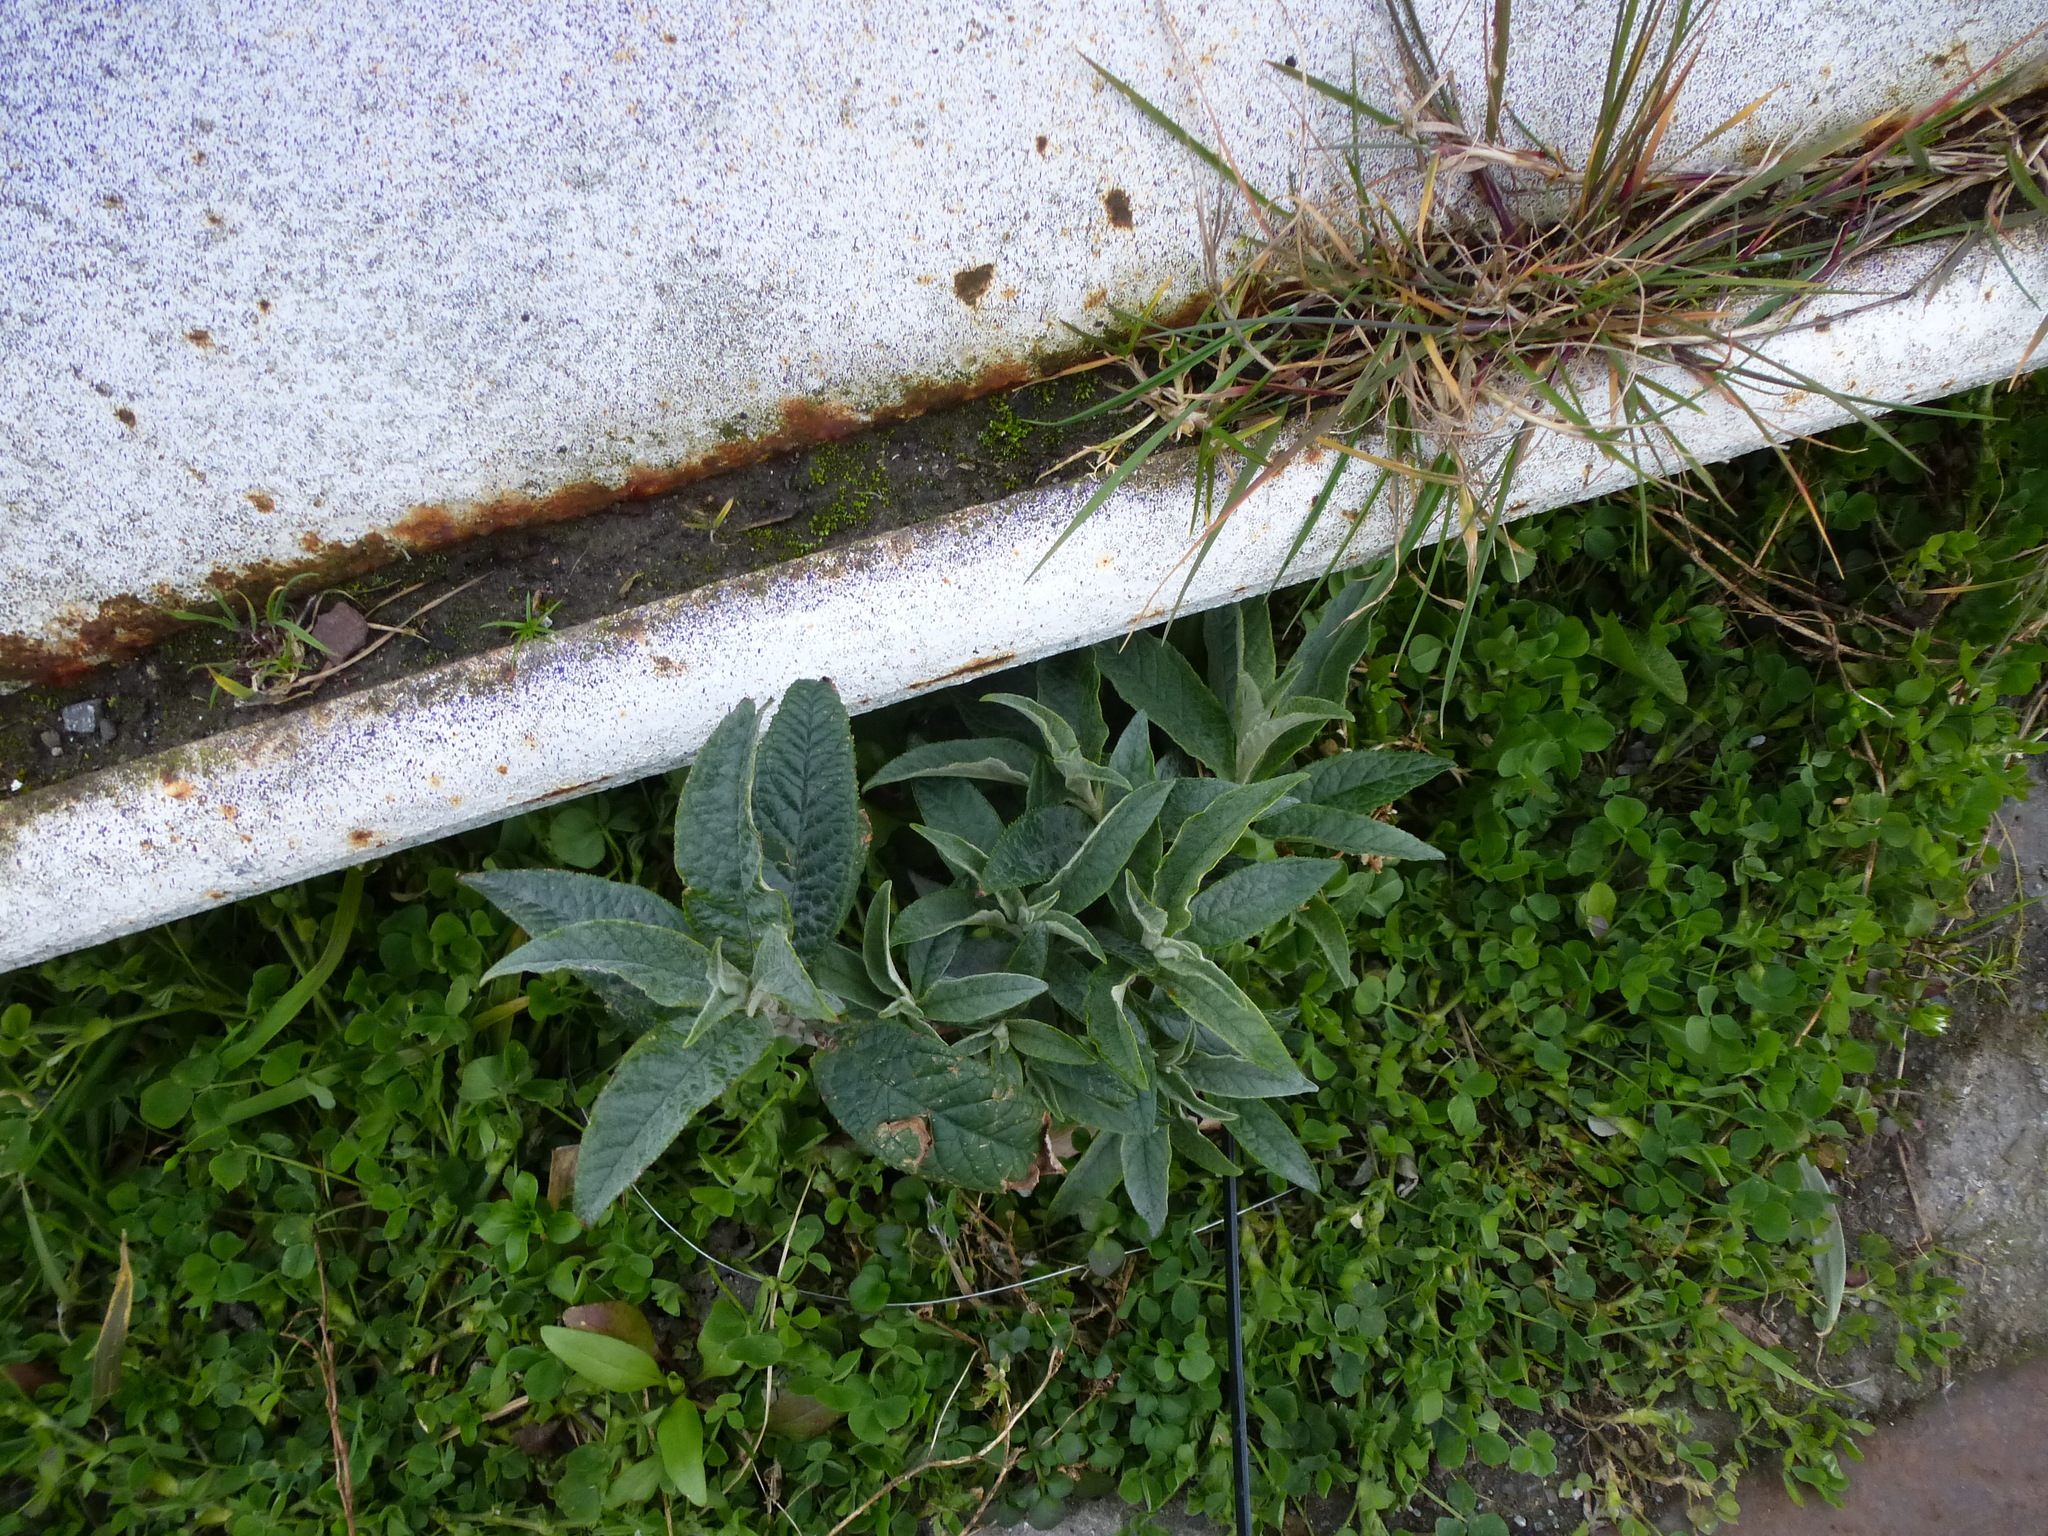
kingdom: Plantae
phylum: Tracheophyta
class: Magnoliopsida
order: Lamiales
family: Scrophulariaceae
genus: Buddleja
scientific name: Buddleja davidii
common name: Butterfly-bush
